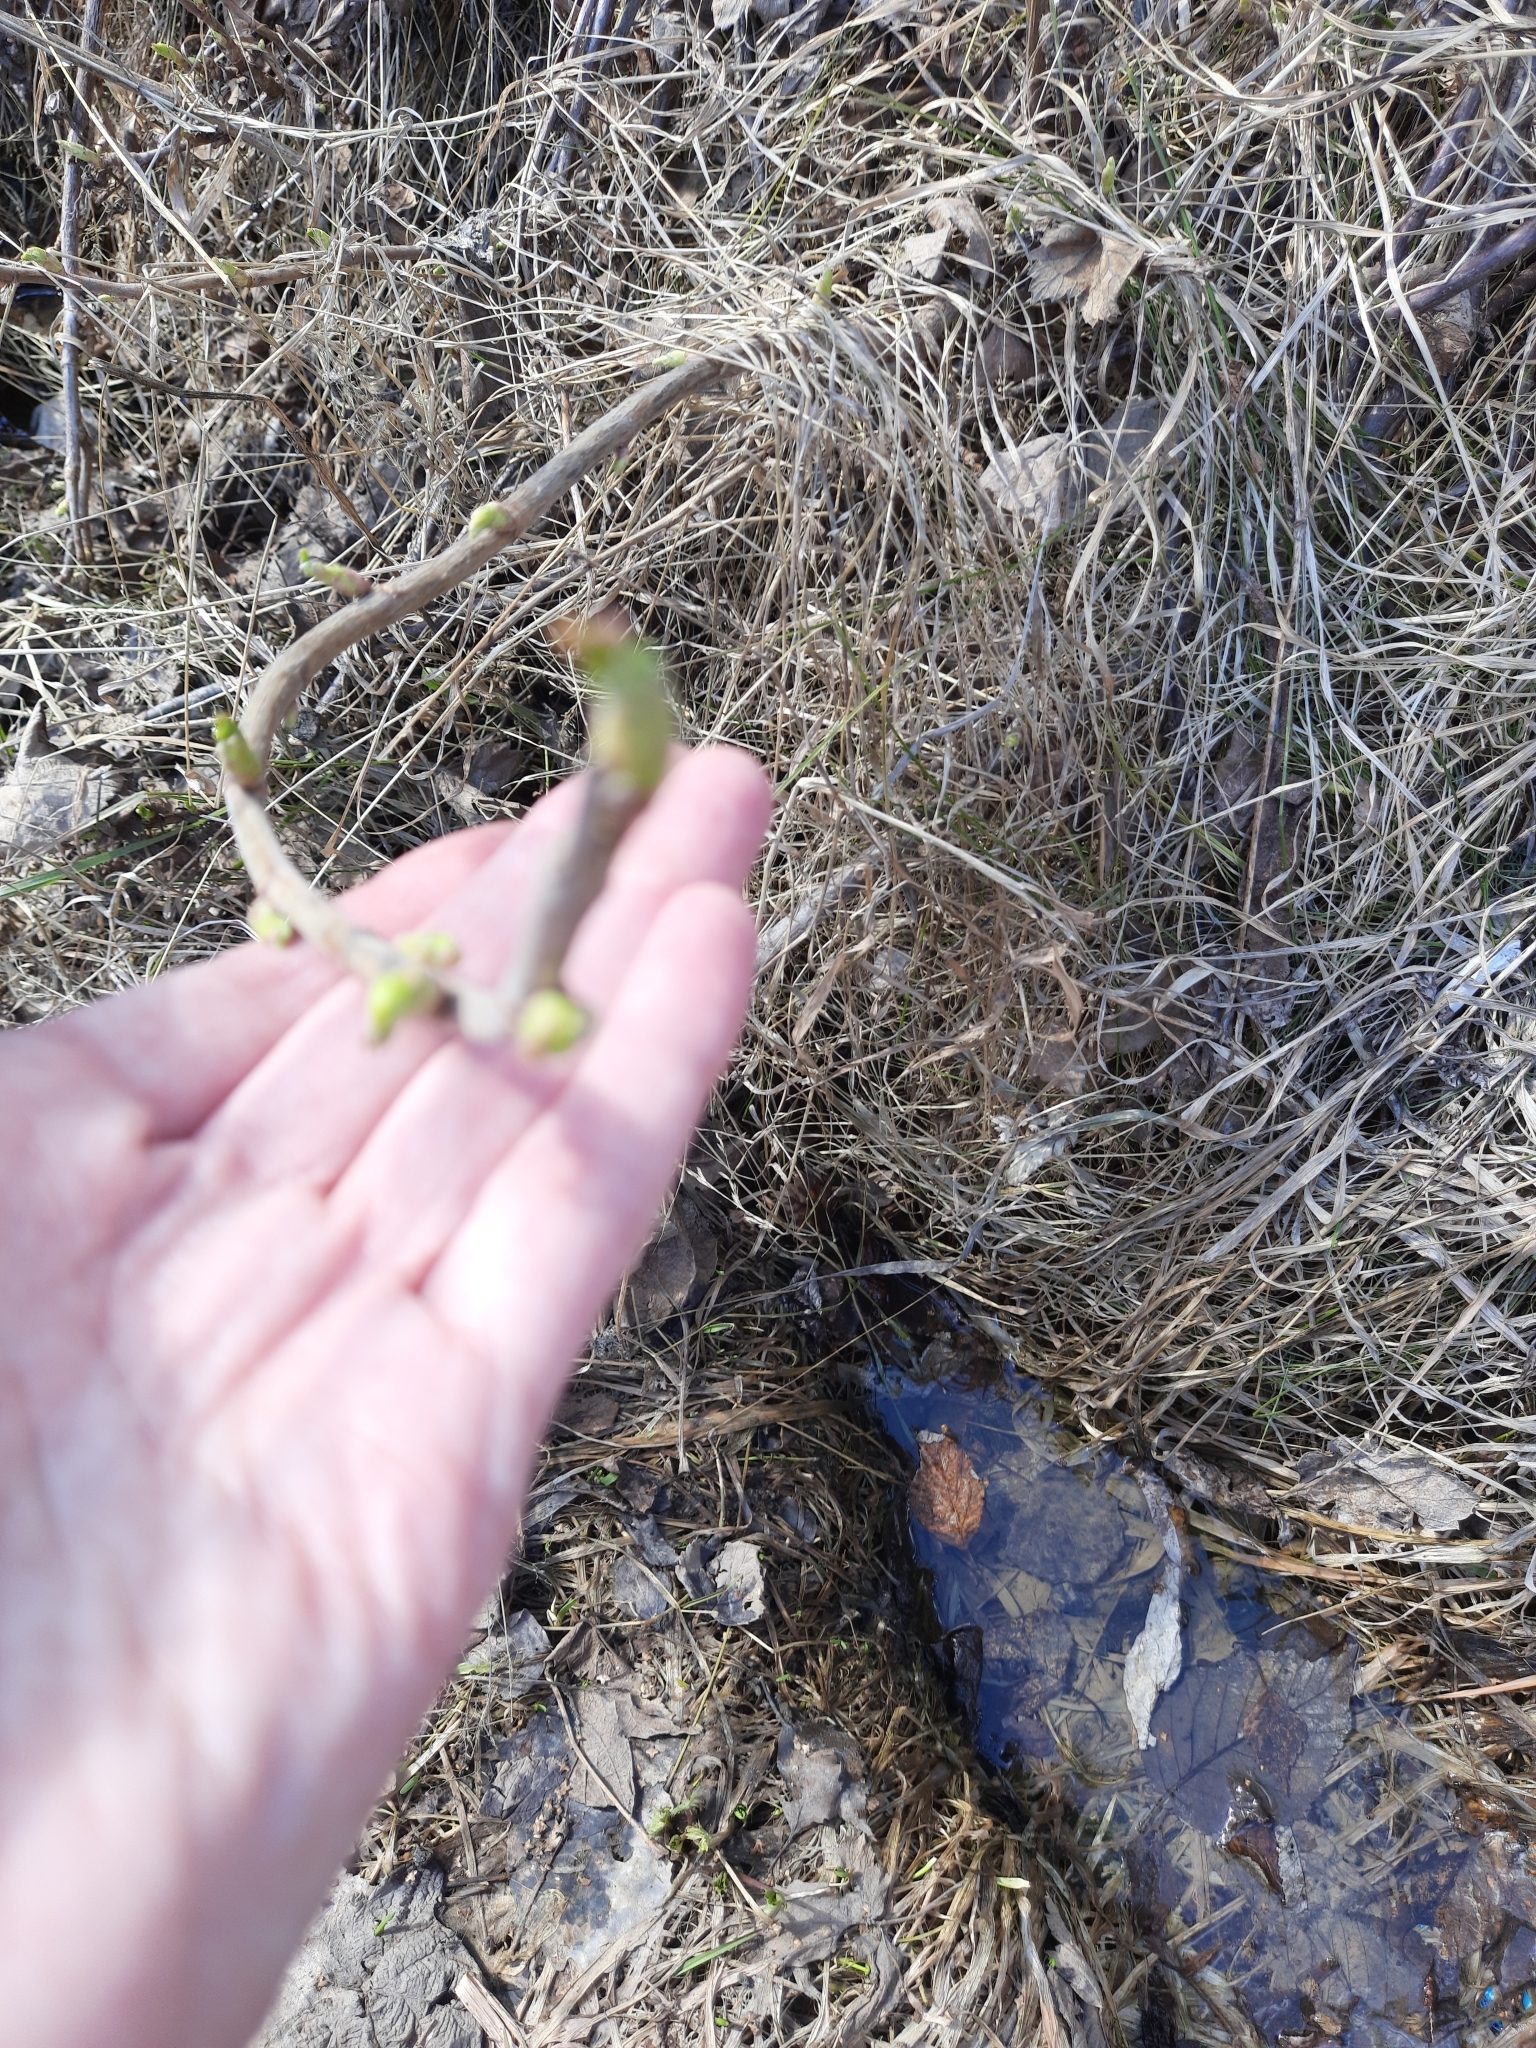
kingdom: Plantae
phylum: Tracheophyta
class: Magnoliopsida
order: Saxifragales
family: Grossulariaceae
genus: Ribes
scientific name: Ribes nigrum
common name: Black currant
